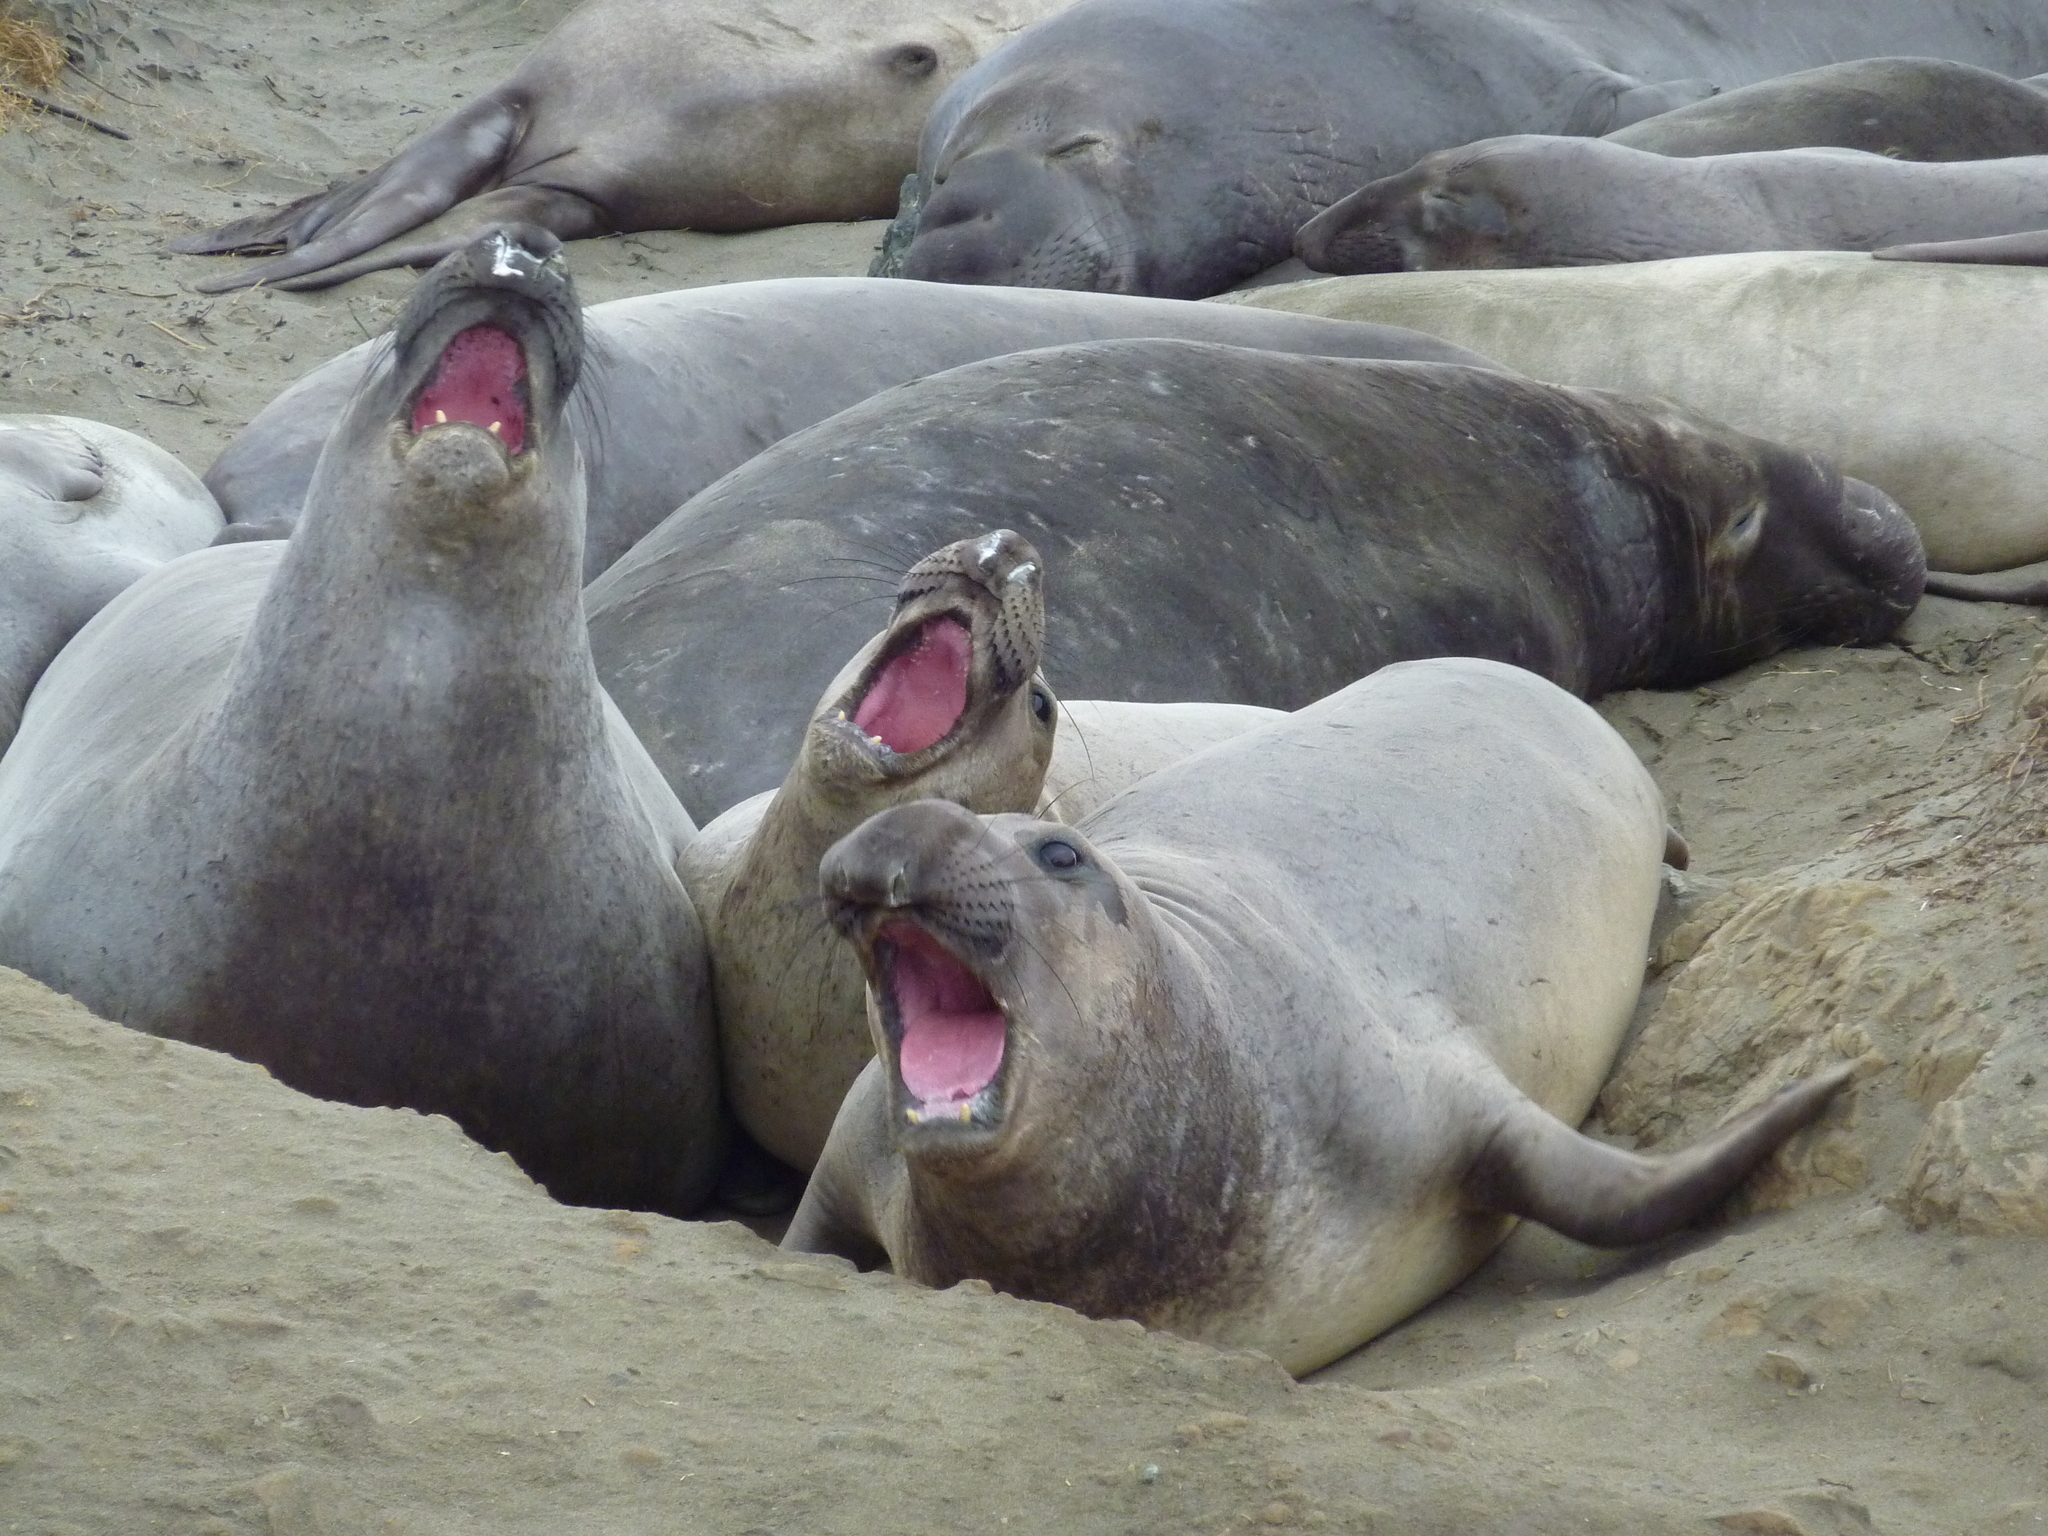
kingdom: Animalia
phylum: Chordata
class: Mammalia
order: Carnivora
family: Phocidae
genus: Mirounga
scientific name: Mirounga angustirostris
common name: Northern elephant seal
